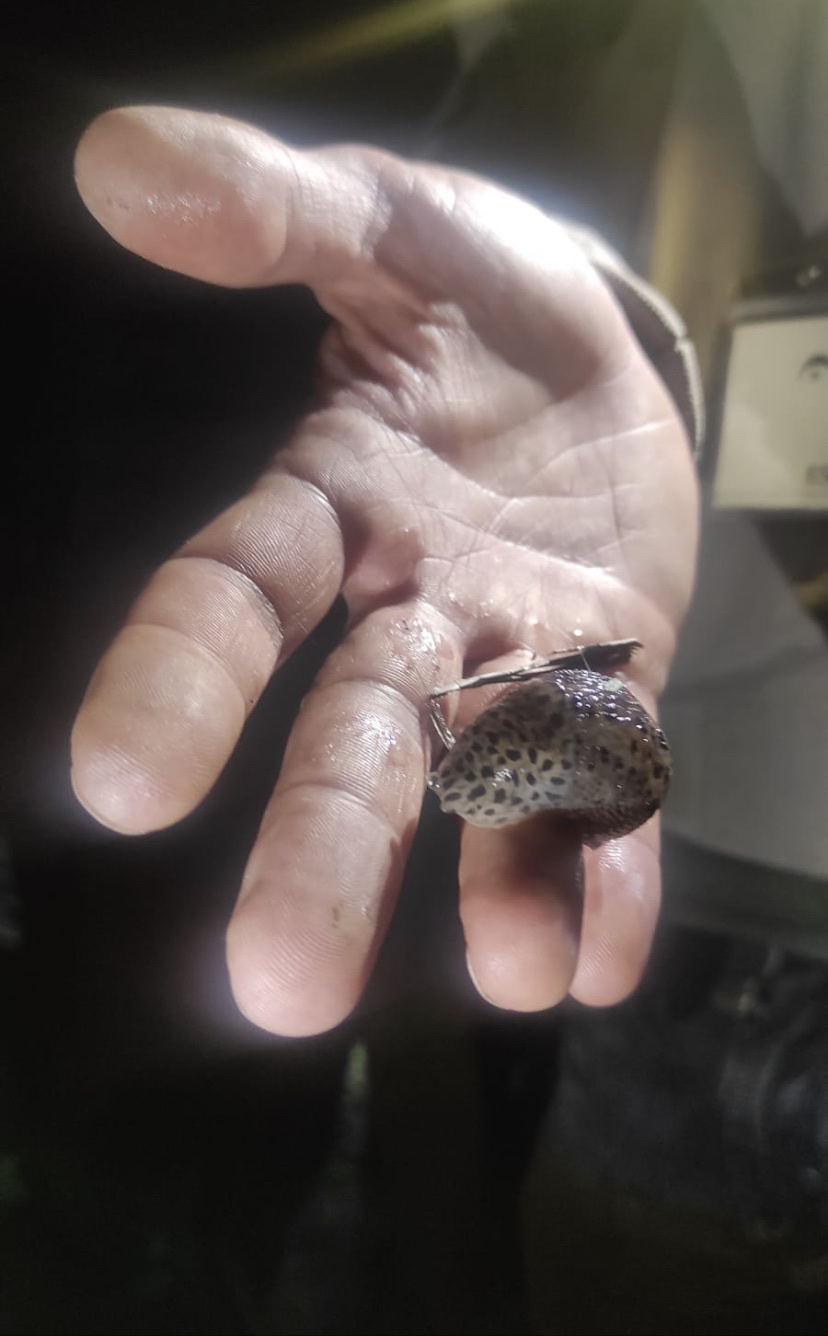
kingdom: Animalia
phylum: Mollusca
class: Gastropoda
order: Stylommatophora
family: Limacidae
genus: Limax
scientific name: Limax maximus
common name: Great grey slug
